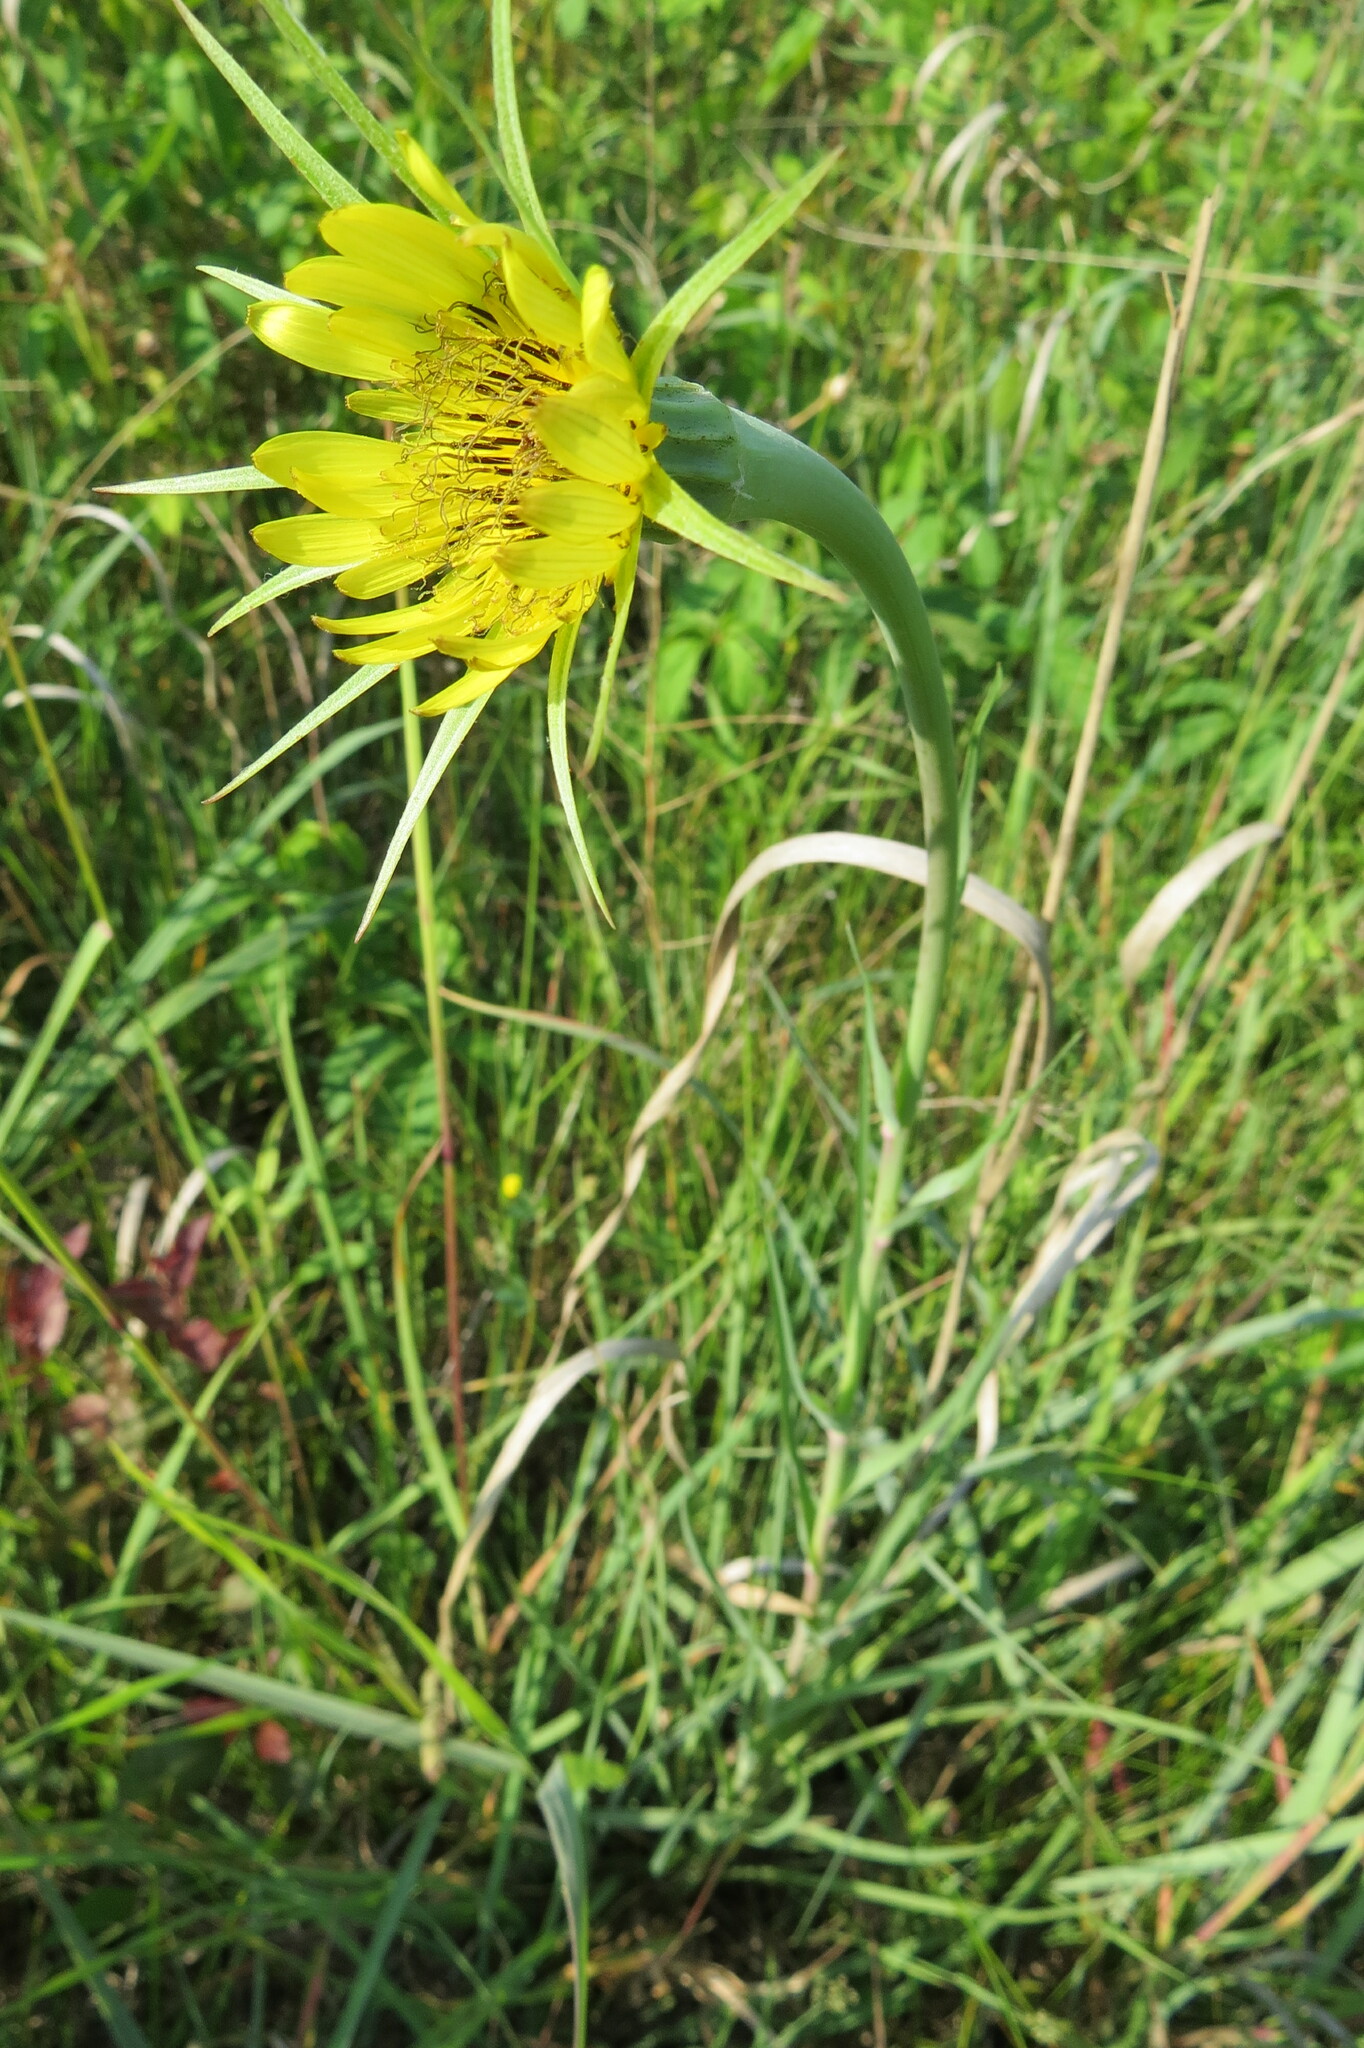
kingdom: Plantae
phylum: Tracheophyta
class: Magnoliopsida
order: Asterales
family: Asteraceae
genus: Tragopogon
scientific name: Tragopogon dubius
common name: Yellow salsify
